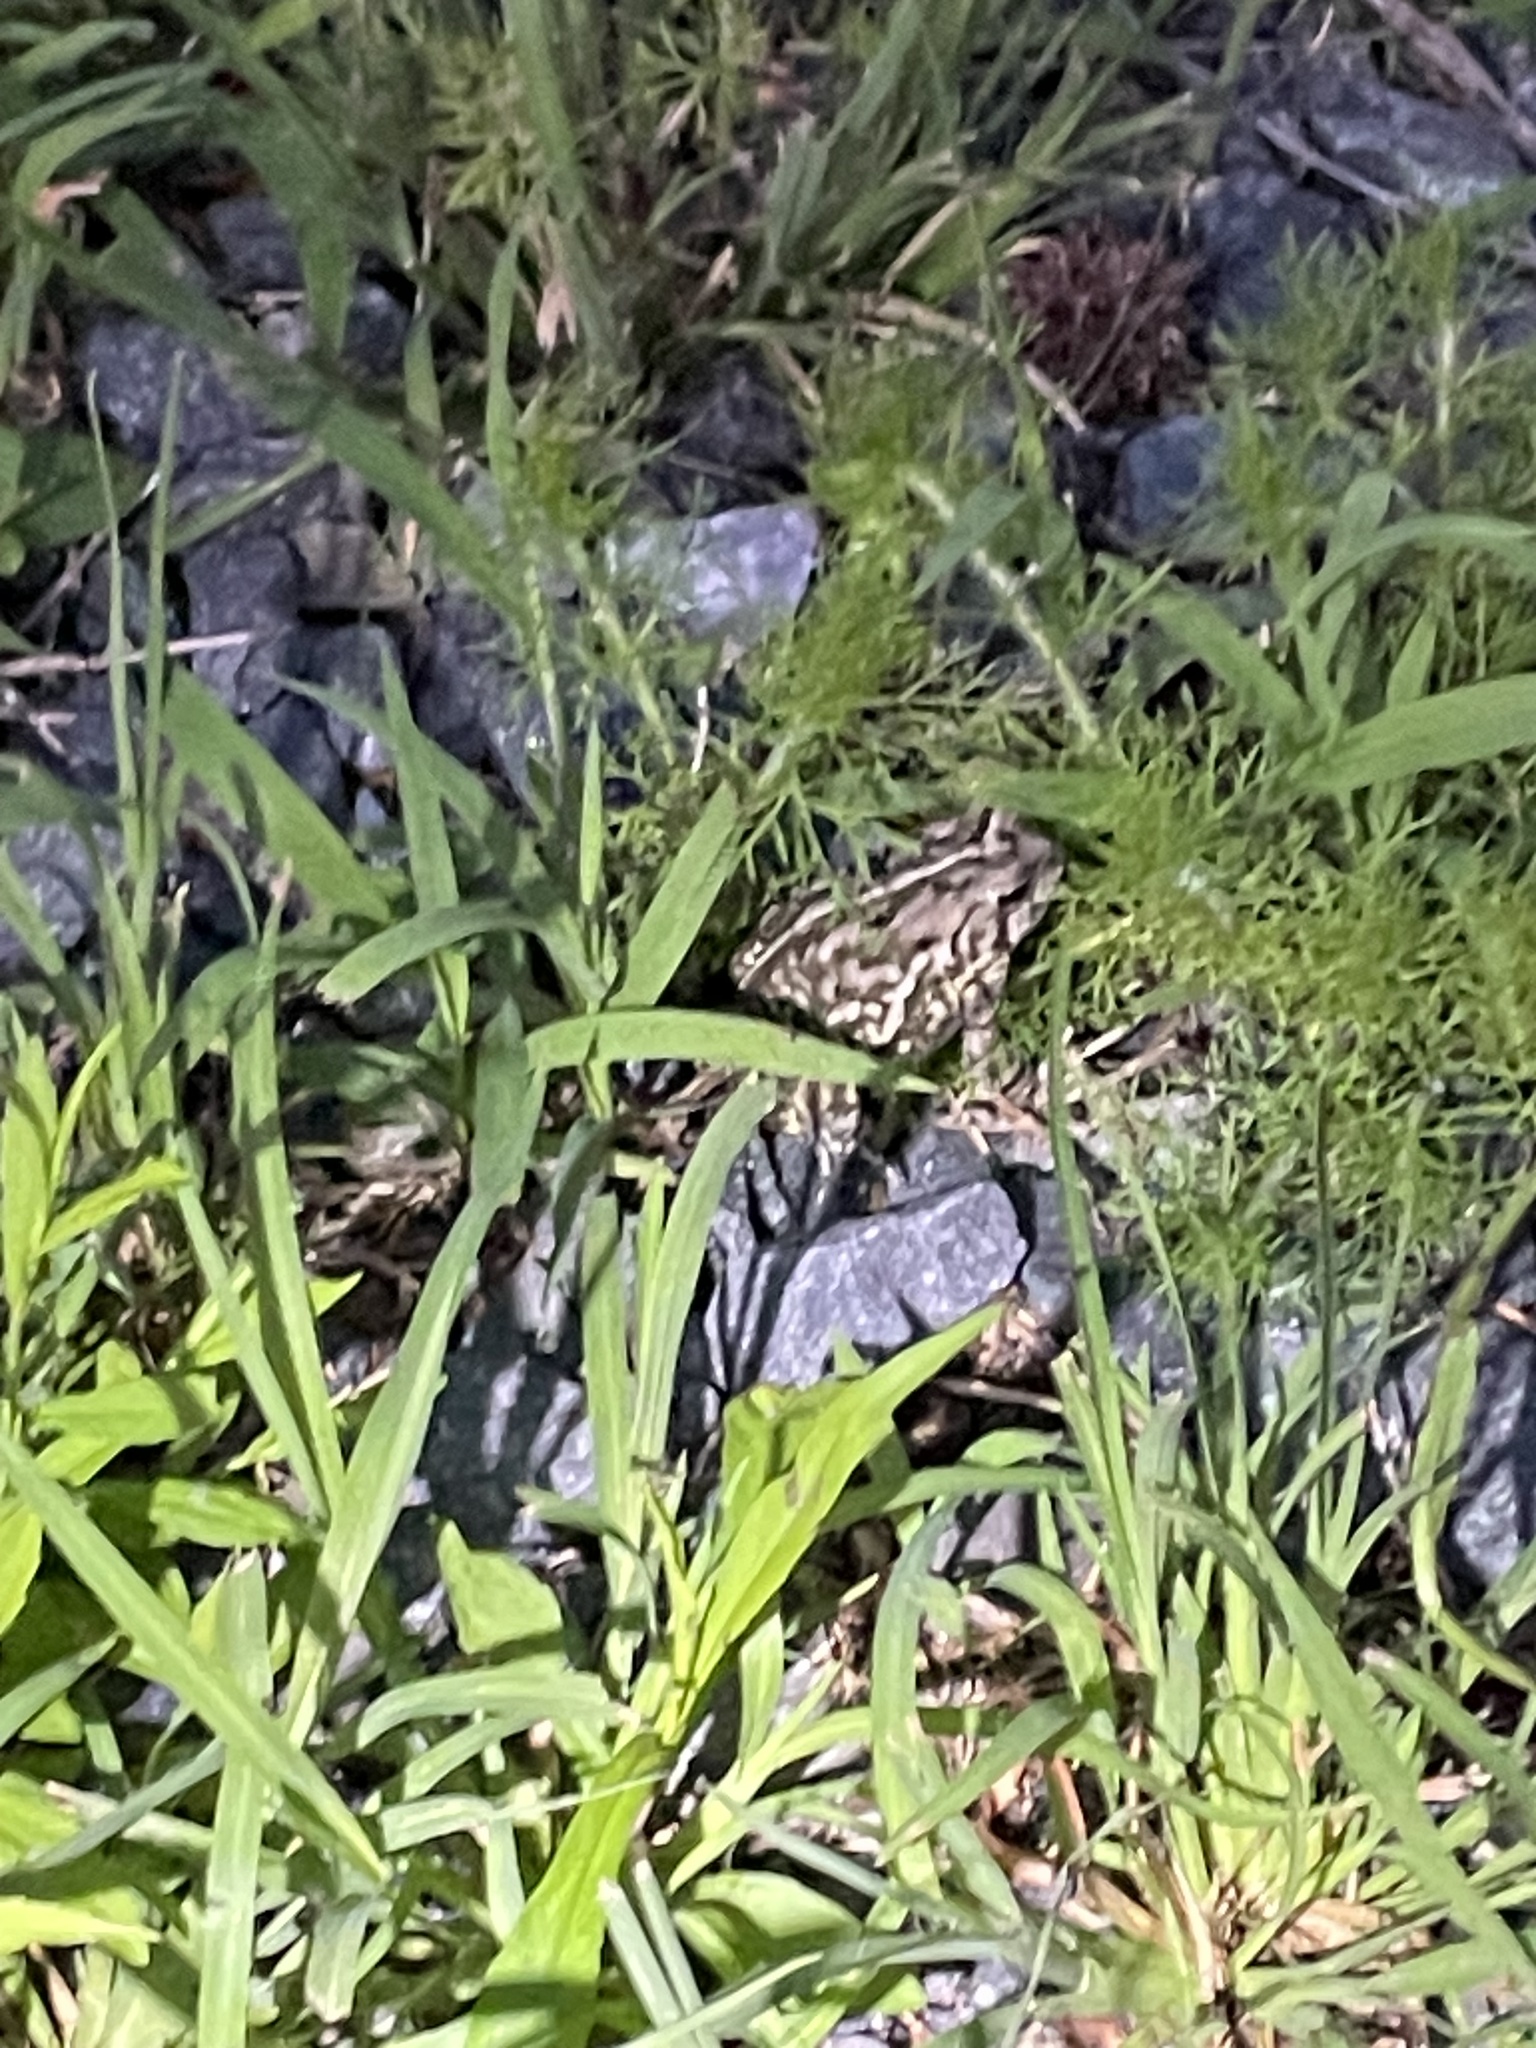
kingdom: Animalia
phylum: Chordata
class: Amphibia
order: Anura
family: Bufonidae
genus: Anaxyrus
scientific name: Anaxyrus fowleri
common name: Fowler's toad
